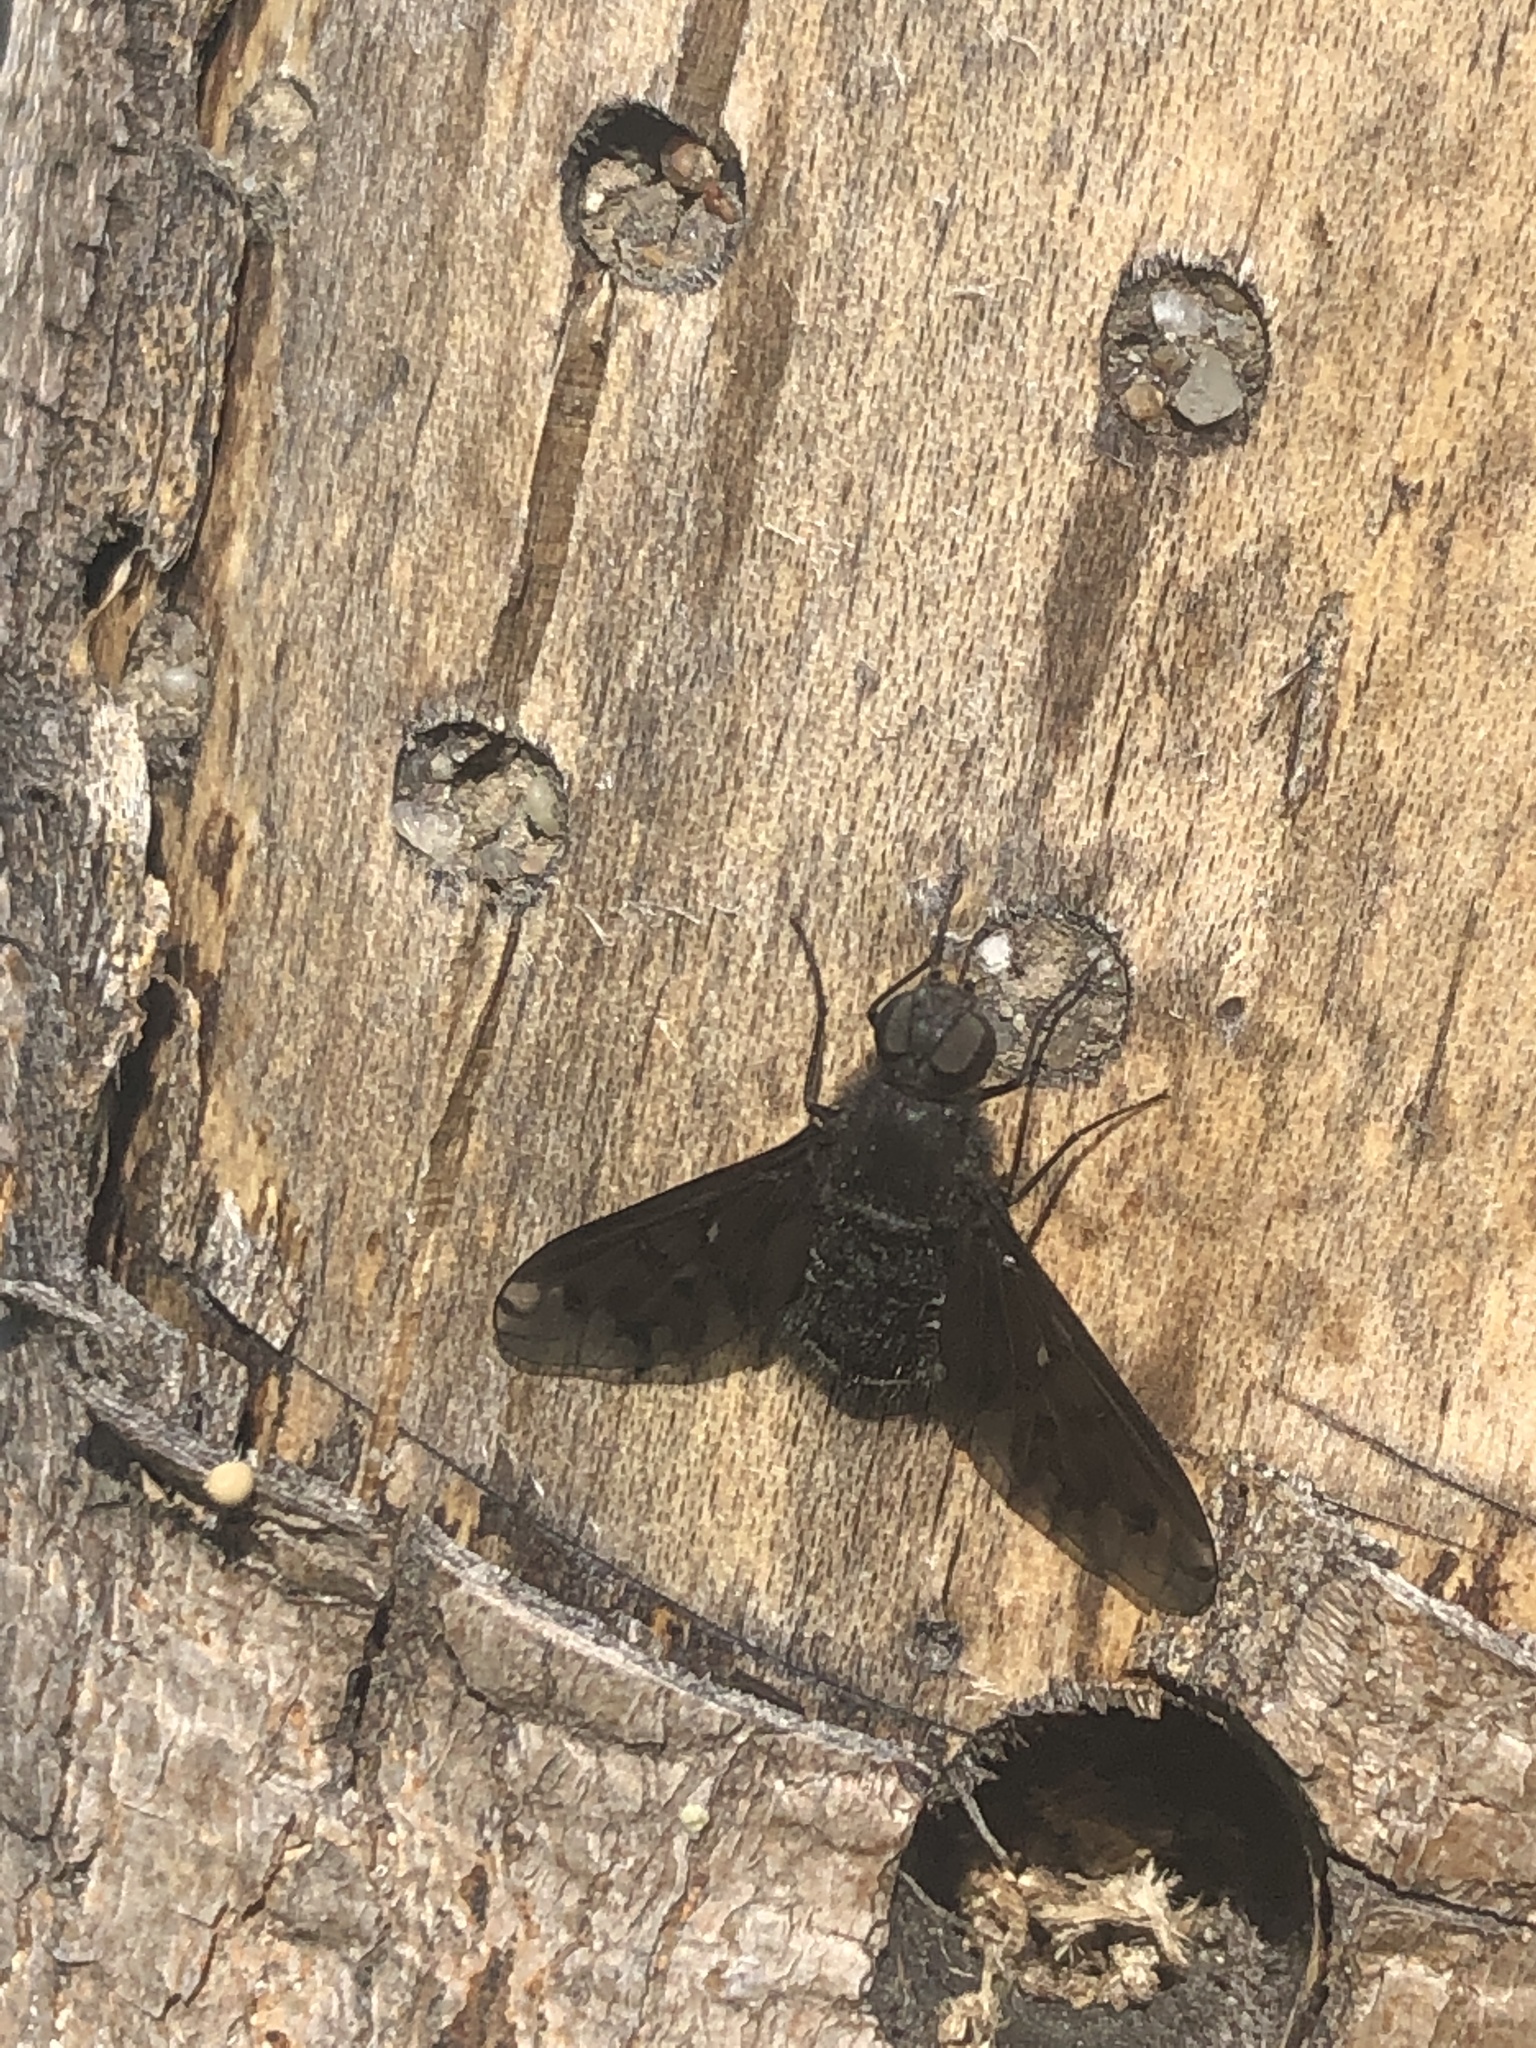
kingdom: Animalia
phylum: Arthropoda
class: Insecta
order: Diptera
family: Bombyliidae
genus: Anthrax
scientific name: Anthrax anthrax
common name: Anthracite bee-fly
